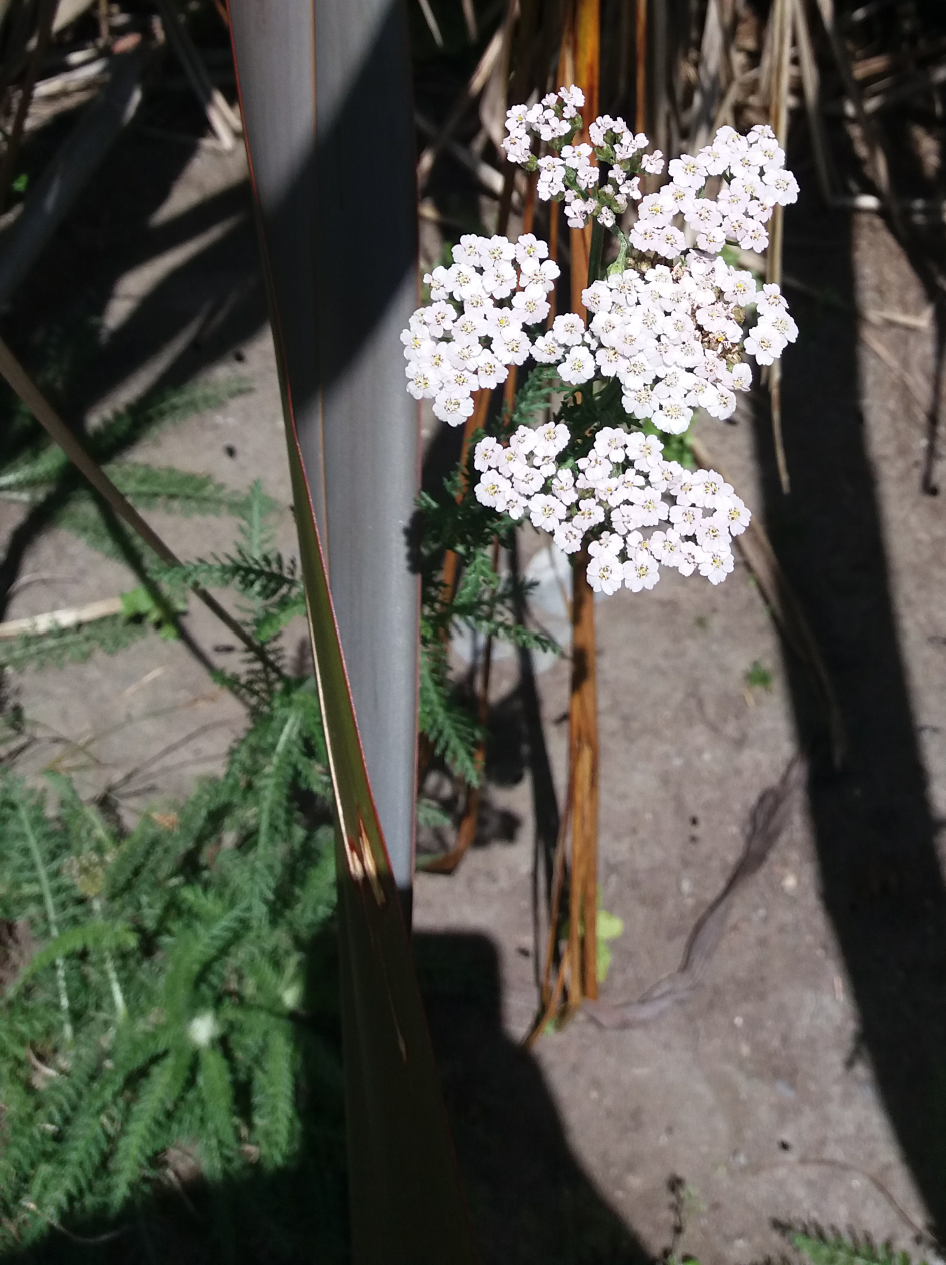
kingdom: Plantae
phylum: Tracheophyta
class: Magnoliopsida
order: Asterales
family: Asteraceae
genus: Achillea
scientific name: Achillea millefolium
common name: Yarrow
